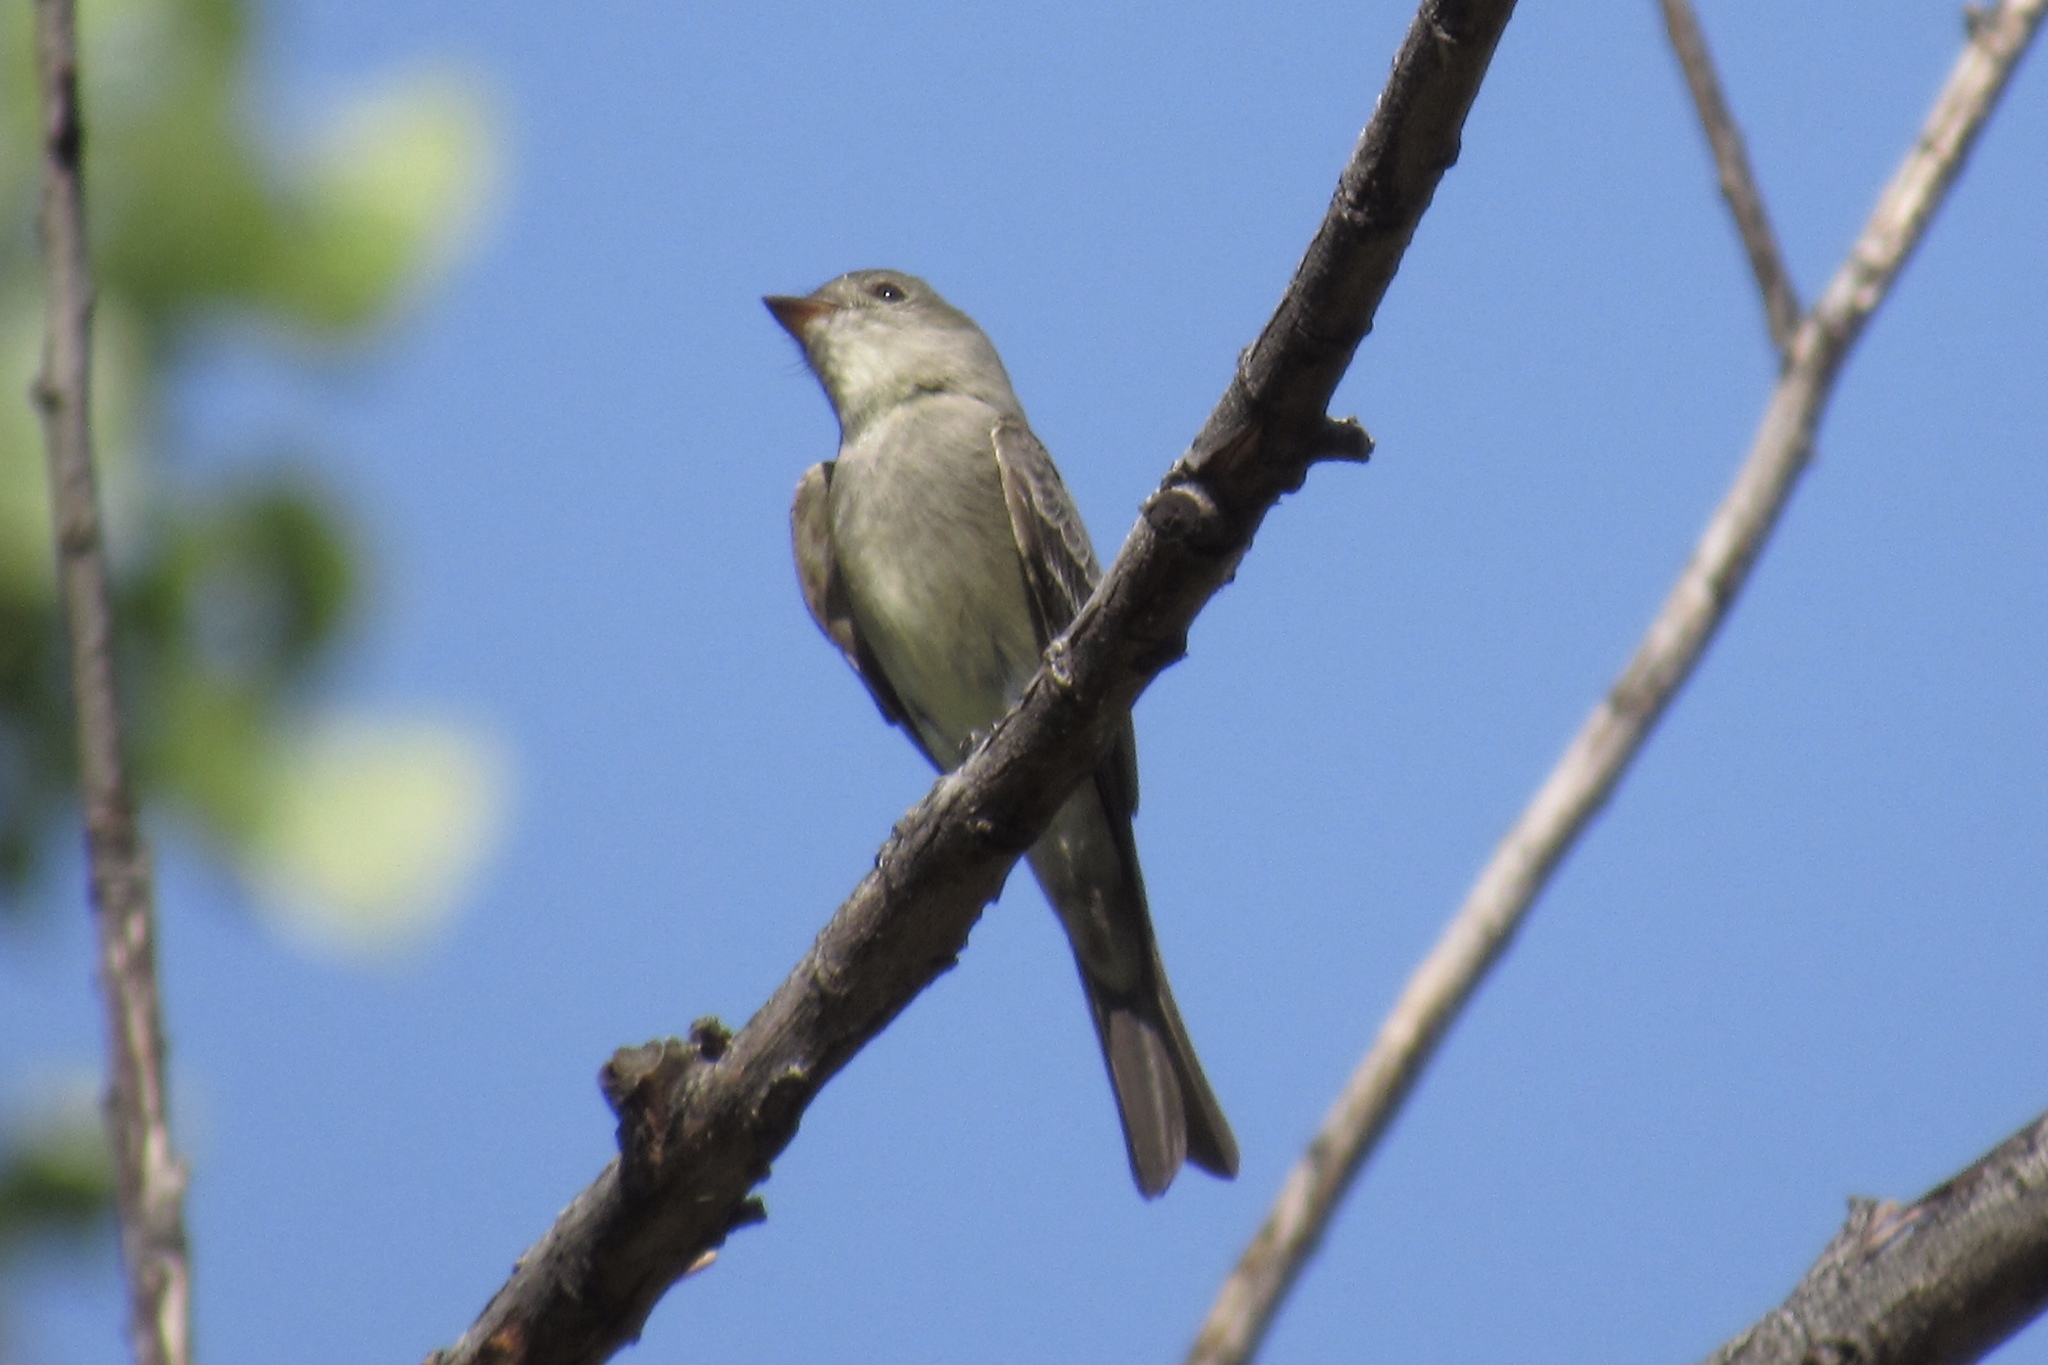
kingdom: Animalia
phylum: Chordata
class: Aves
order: Passeriformes
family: Tyrannidae
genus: Contopus
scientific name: Contopus sordidulus
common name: Western wood-pewee
